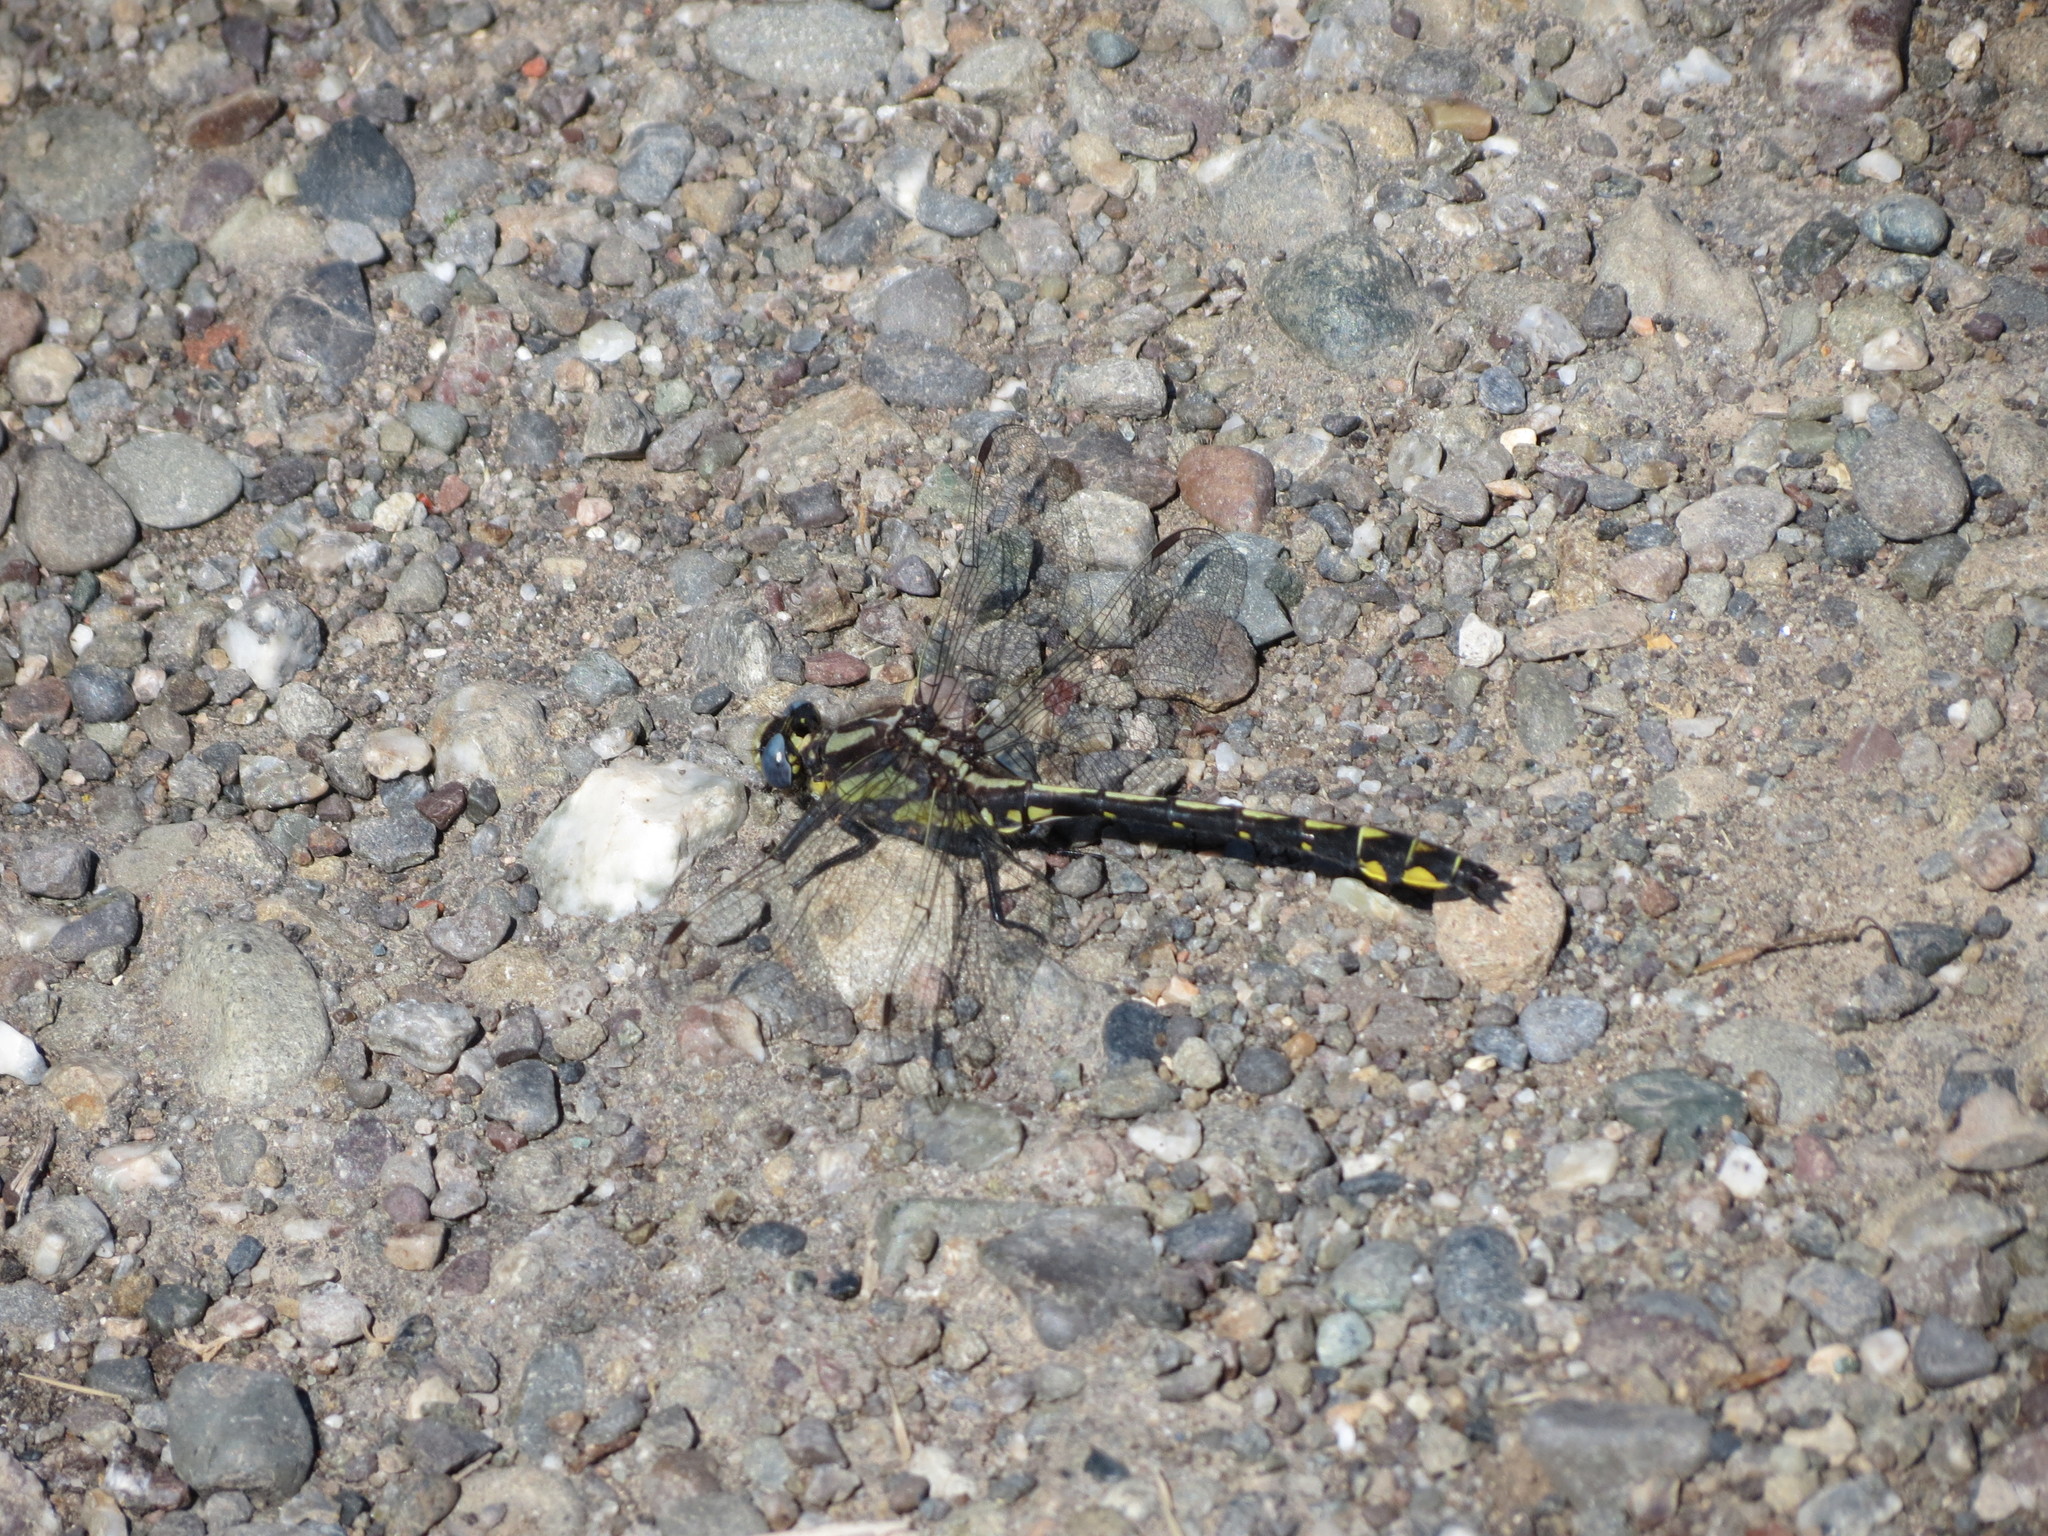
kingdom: Animalia
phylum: Arthropoda
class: Insecta
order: Odonata
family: Gomphidae
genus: Phanogomphus
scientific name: Phanogomphus kurilis
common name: Pacific clubtail
